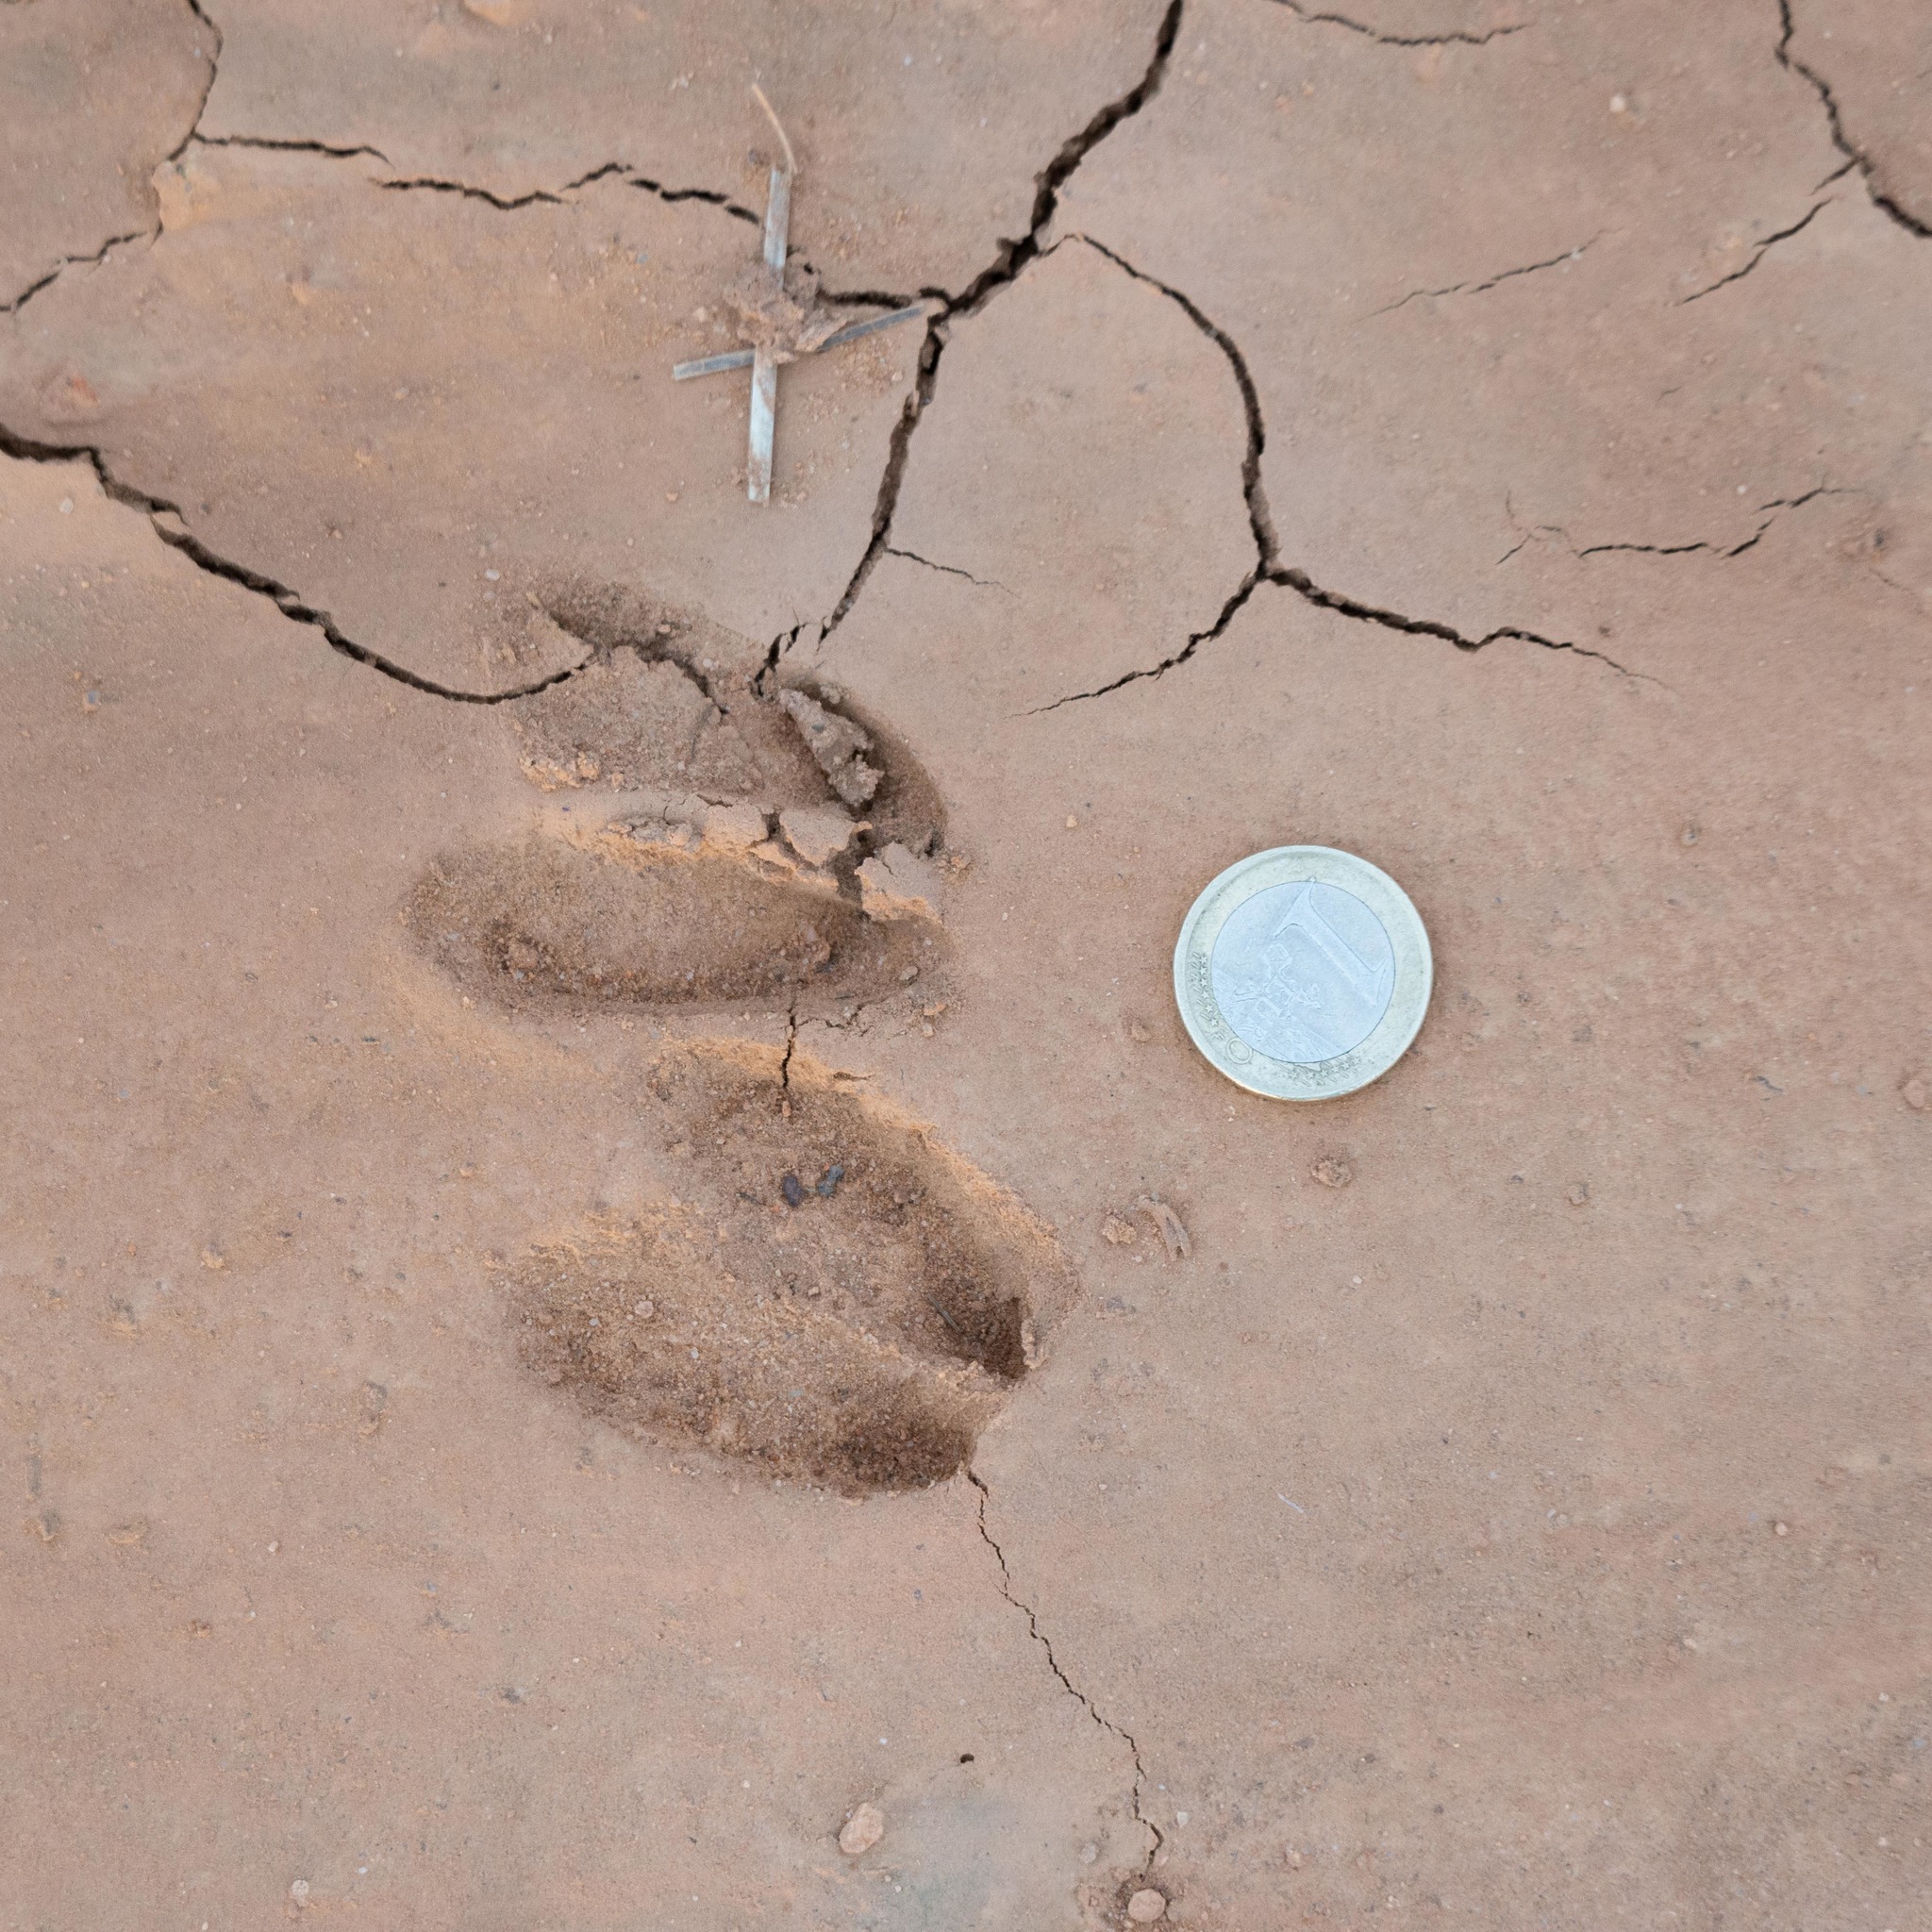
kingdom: Animalia
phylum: Chordata
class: Mammalia
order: Artiodactyla
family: Cervidae
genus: Capreolus
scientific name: Capreolus capreolus
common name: Western roe deer
